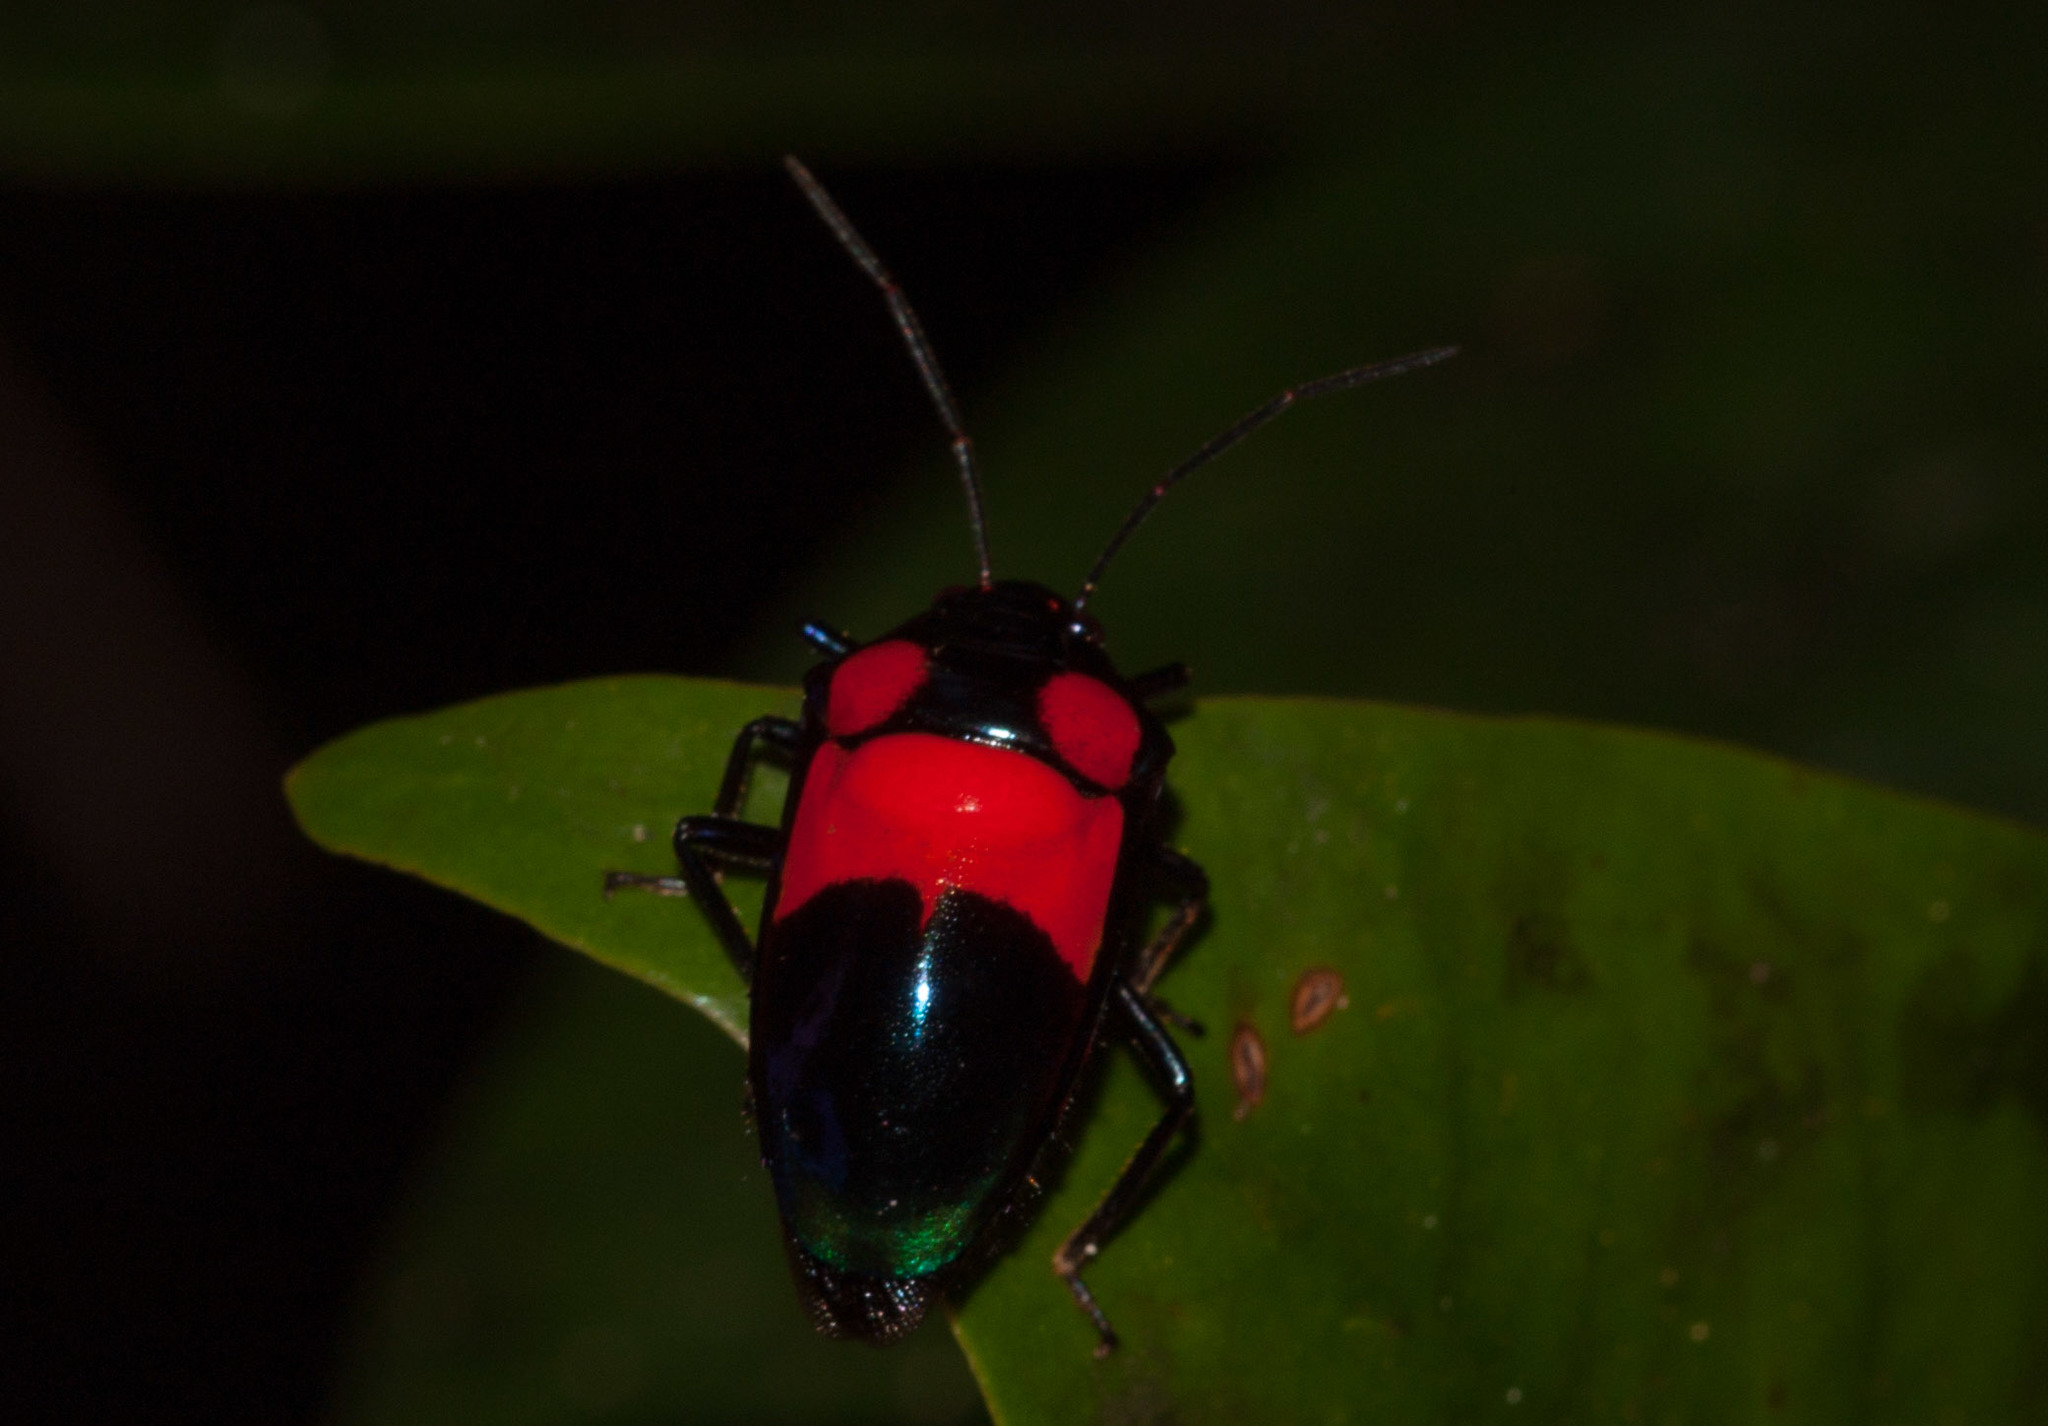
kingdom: Animalia
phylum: Arthropoda
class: Insecta
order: Hemiptera
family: Scutelleridae
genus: Calliphara
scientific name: Calliphara
